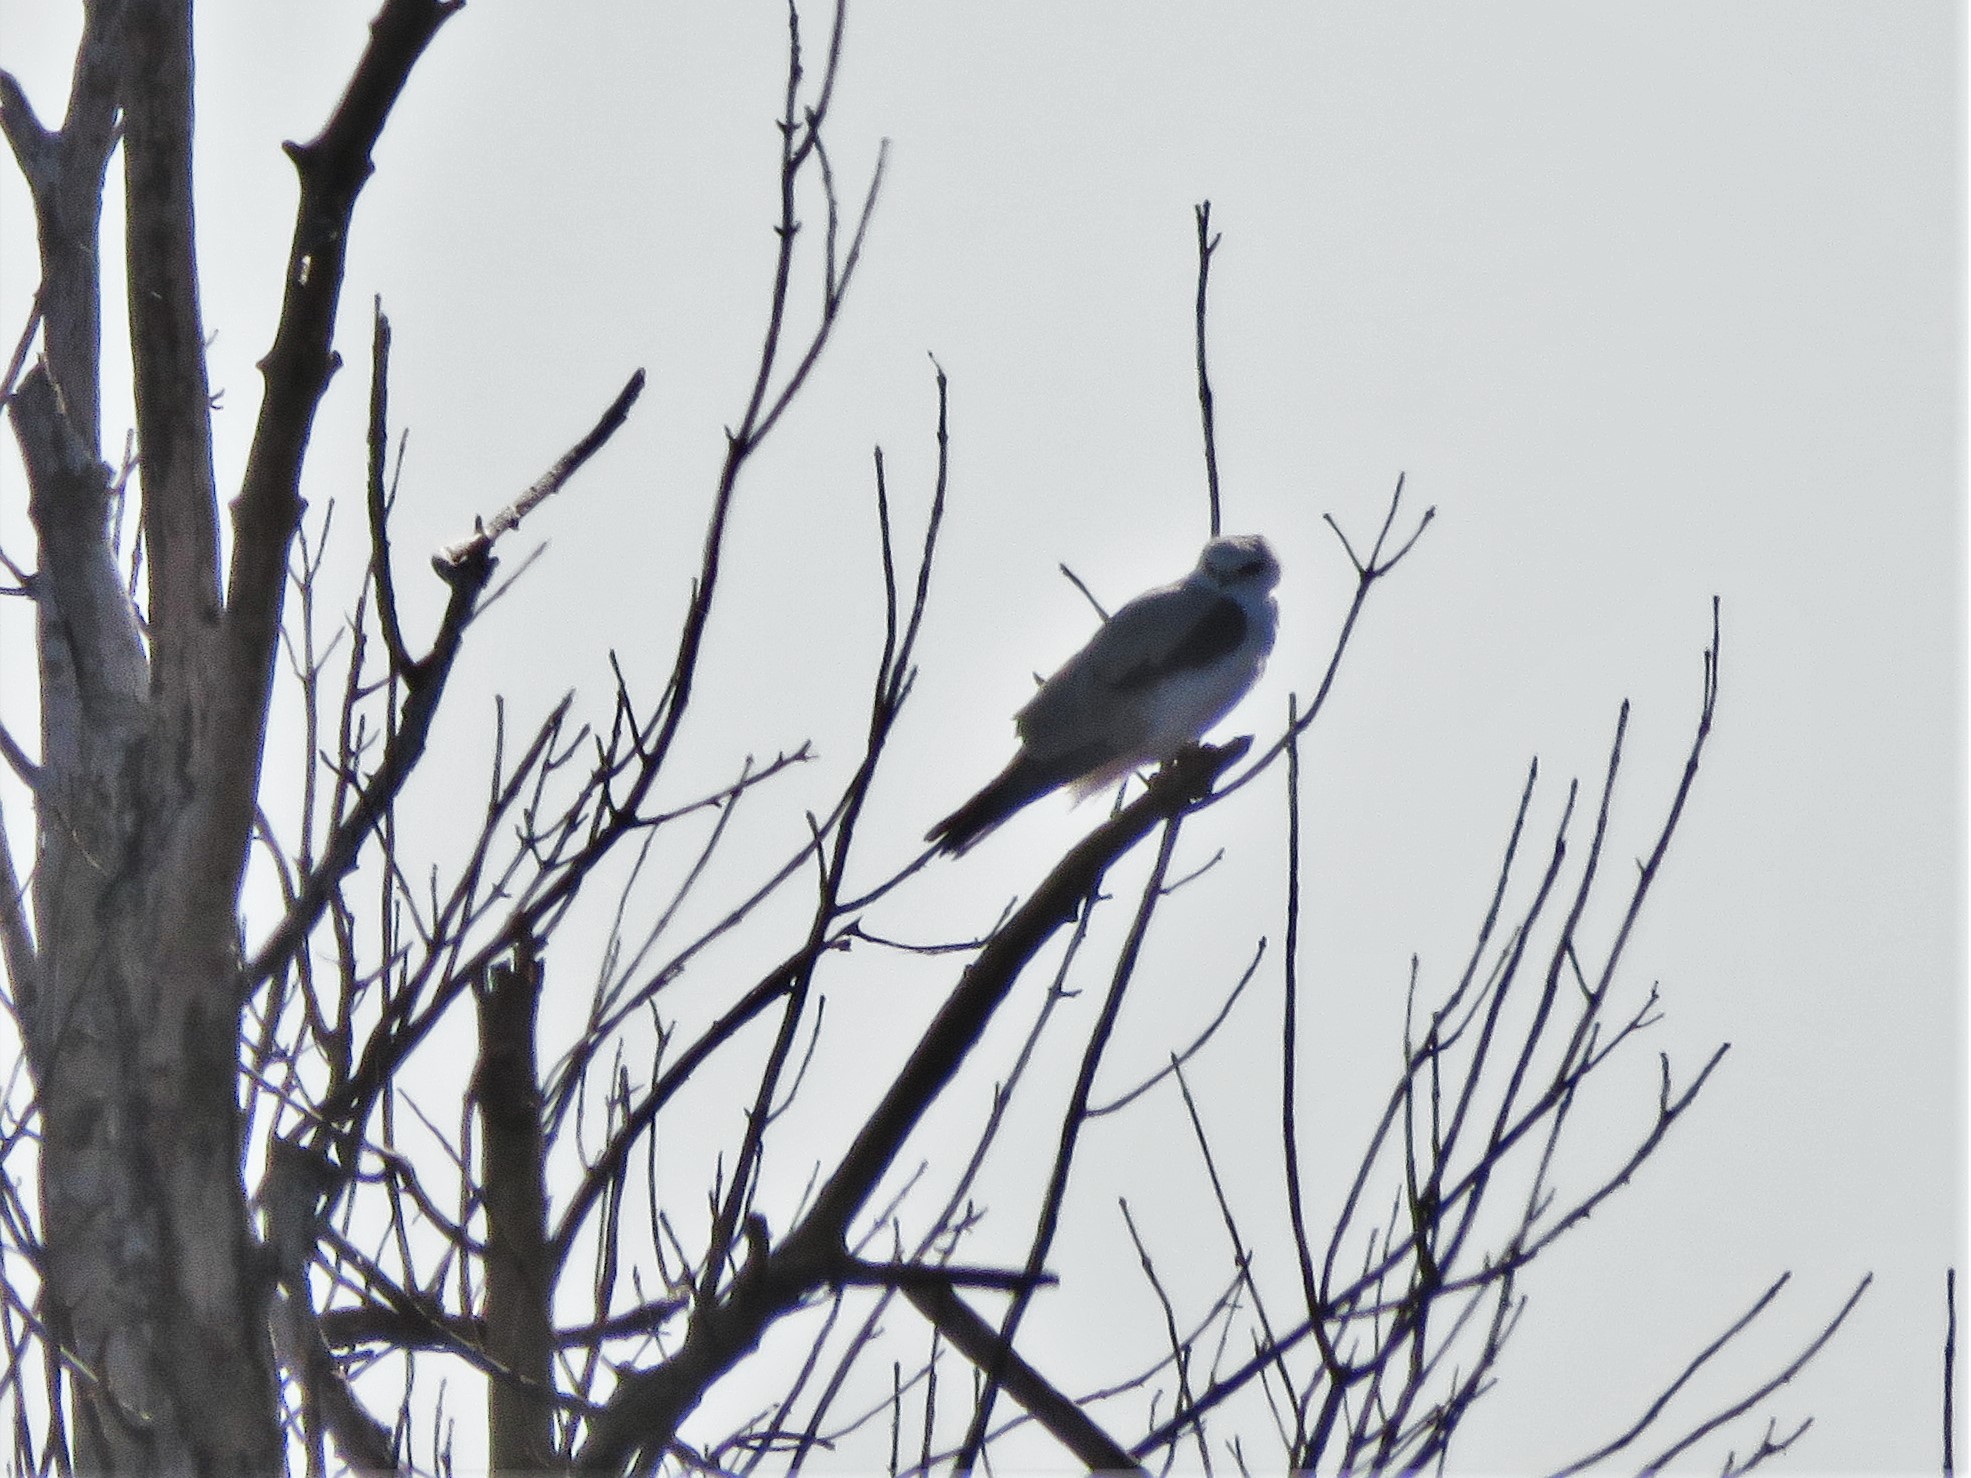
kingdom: Animalia
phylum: Chordata
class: Aves
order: Accipitriformes
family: Accipitridae
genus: Elanus
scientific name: Elanus leucurus
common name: White-tailed kite
